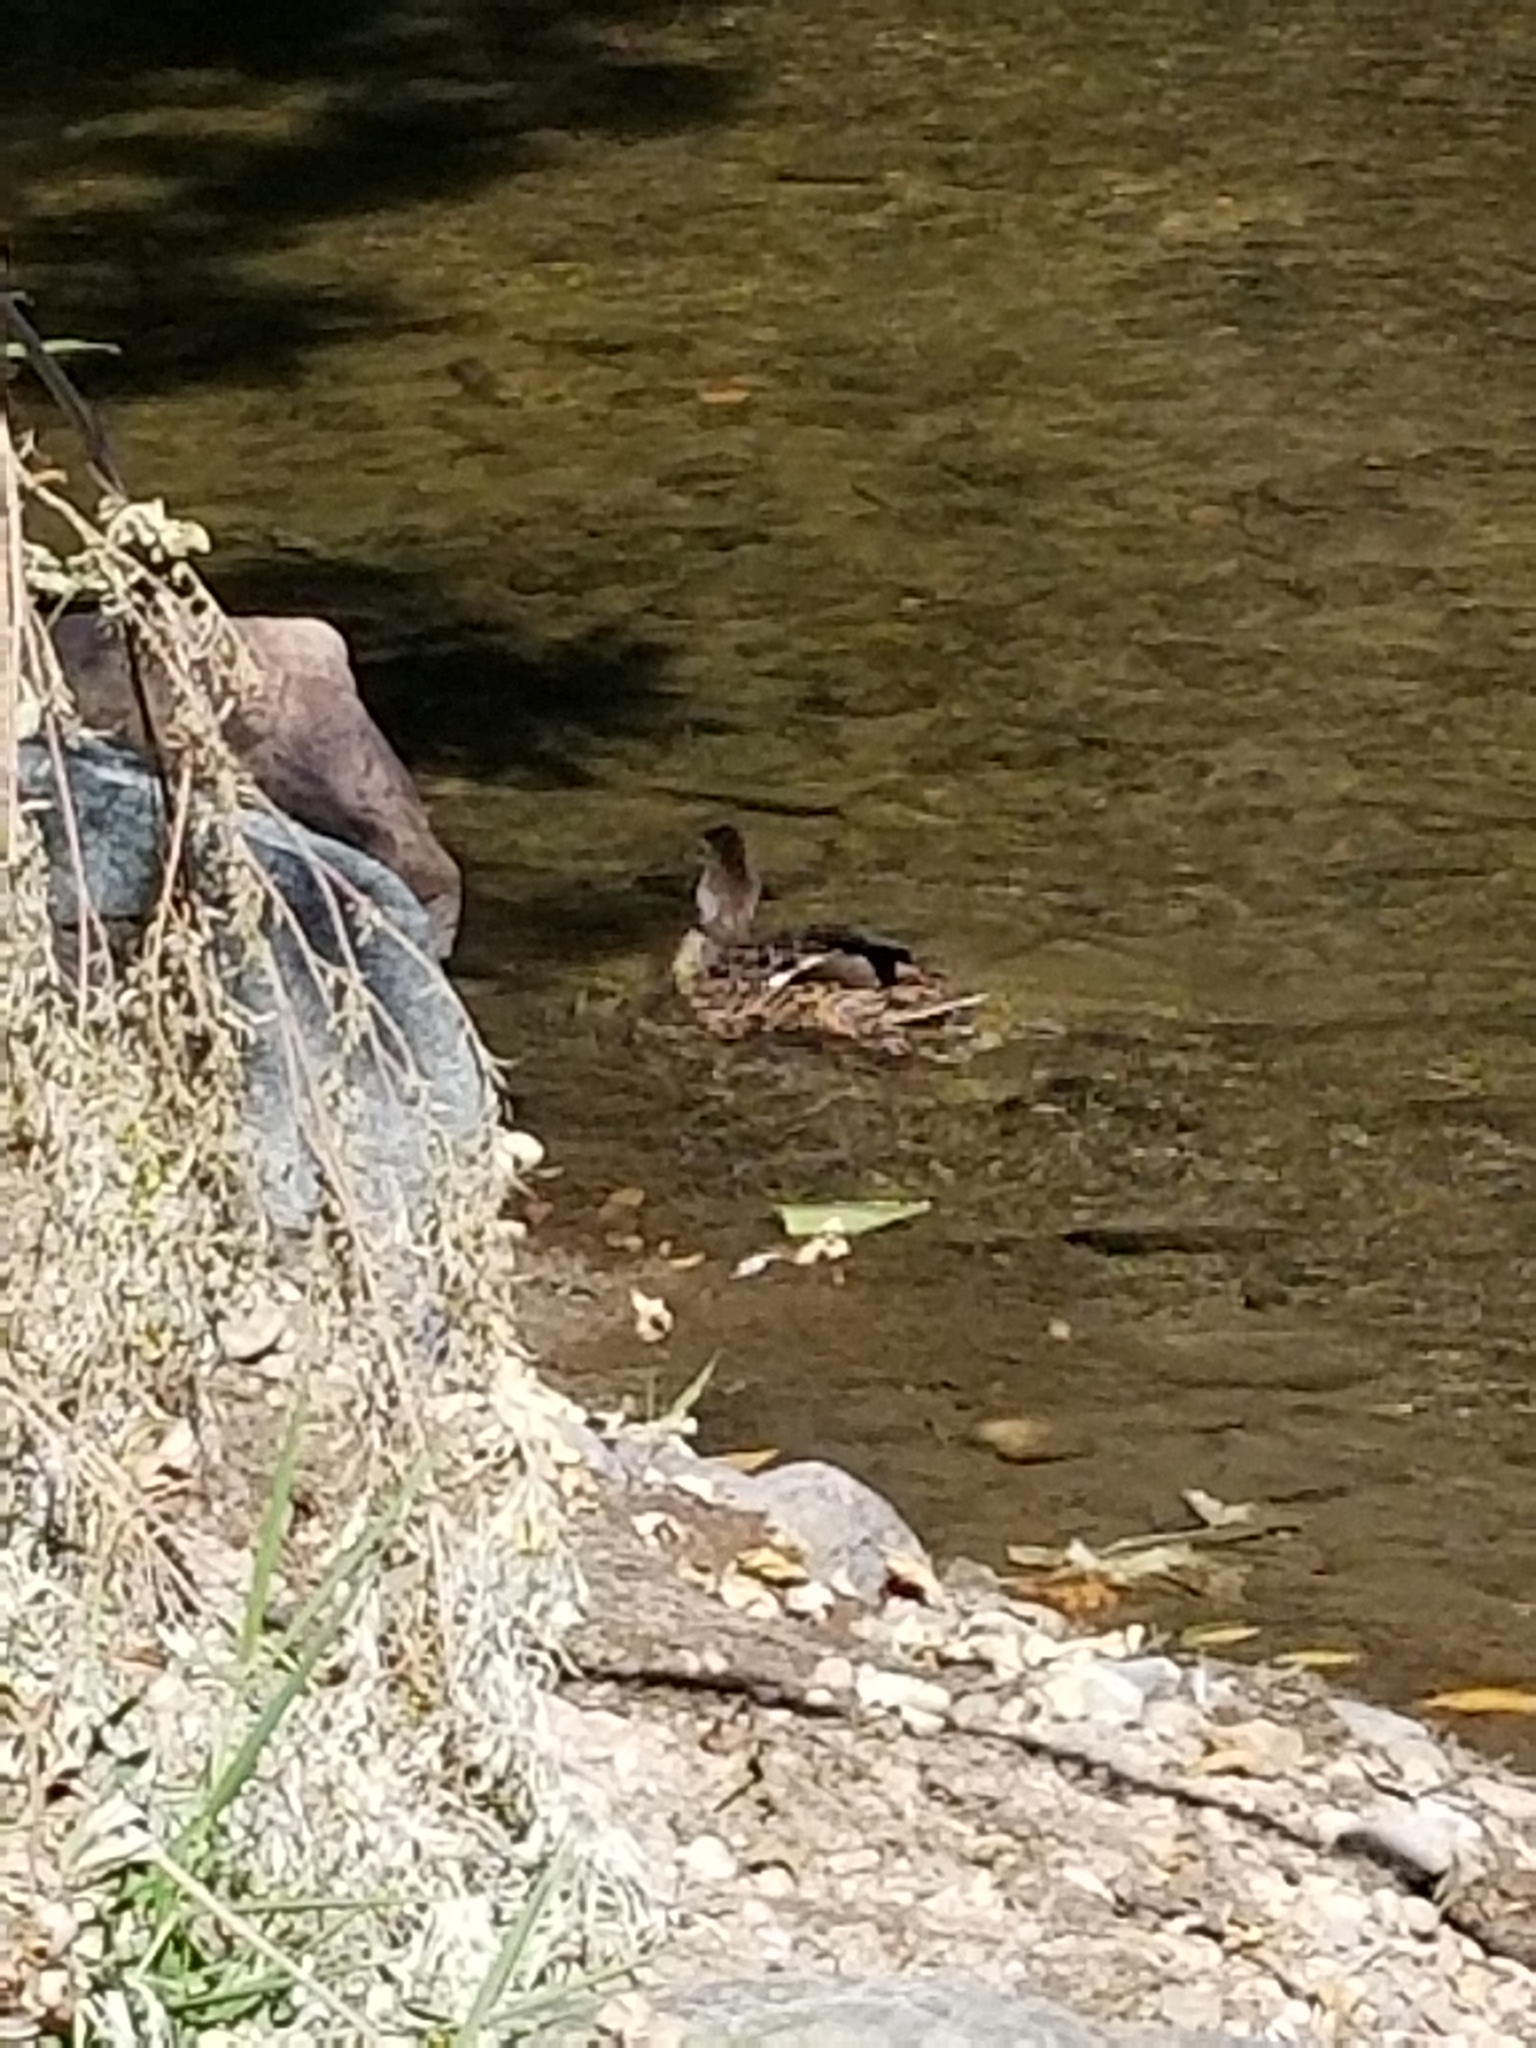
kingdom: Animalia
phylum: Chordata
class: Aves
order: Anseriformes
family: Anatidae
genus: Anas
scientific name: Anas platyrhynchos
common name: Mallard
